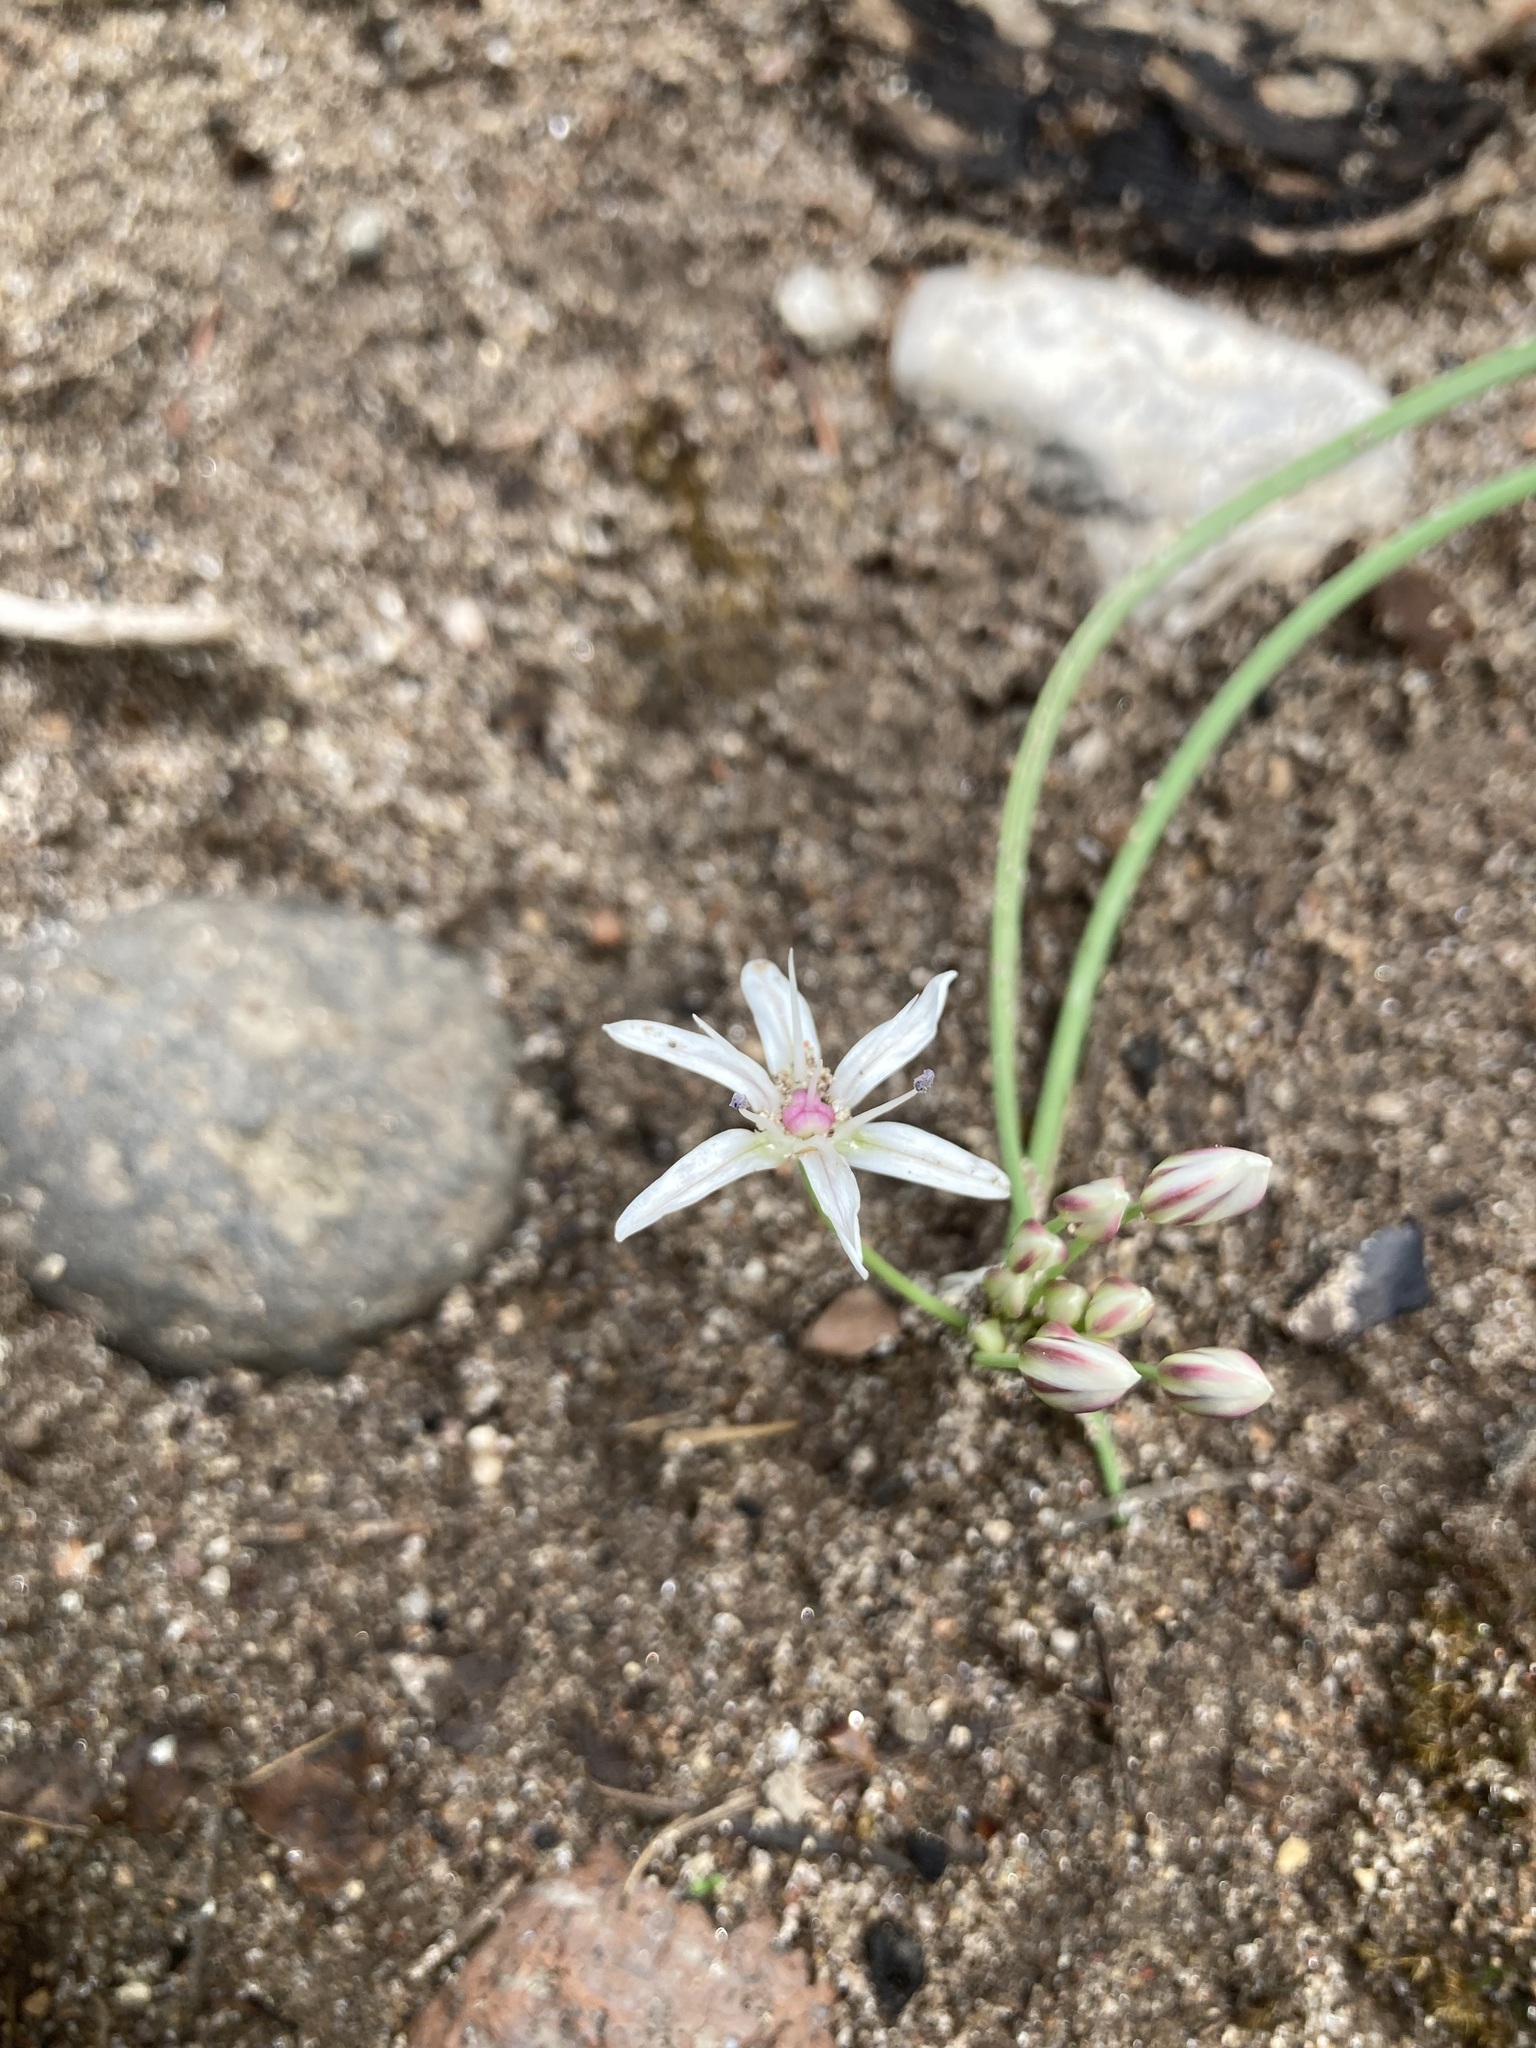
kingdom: Plantae
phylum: Tracheophyta
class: Liliopsida
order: Asparagales
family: Amaryllidaceae
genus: Allium
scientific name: Allium rhizomatum
